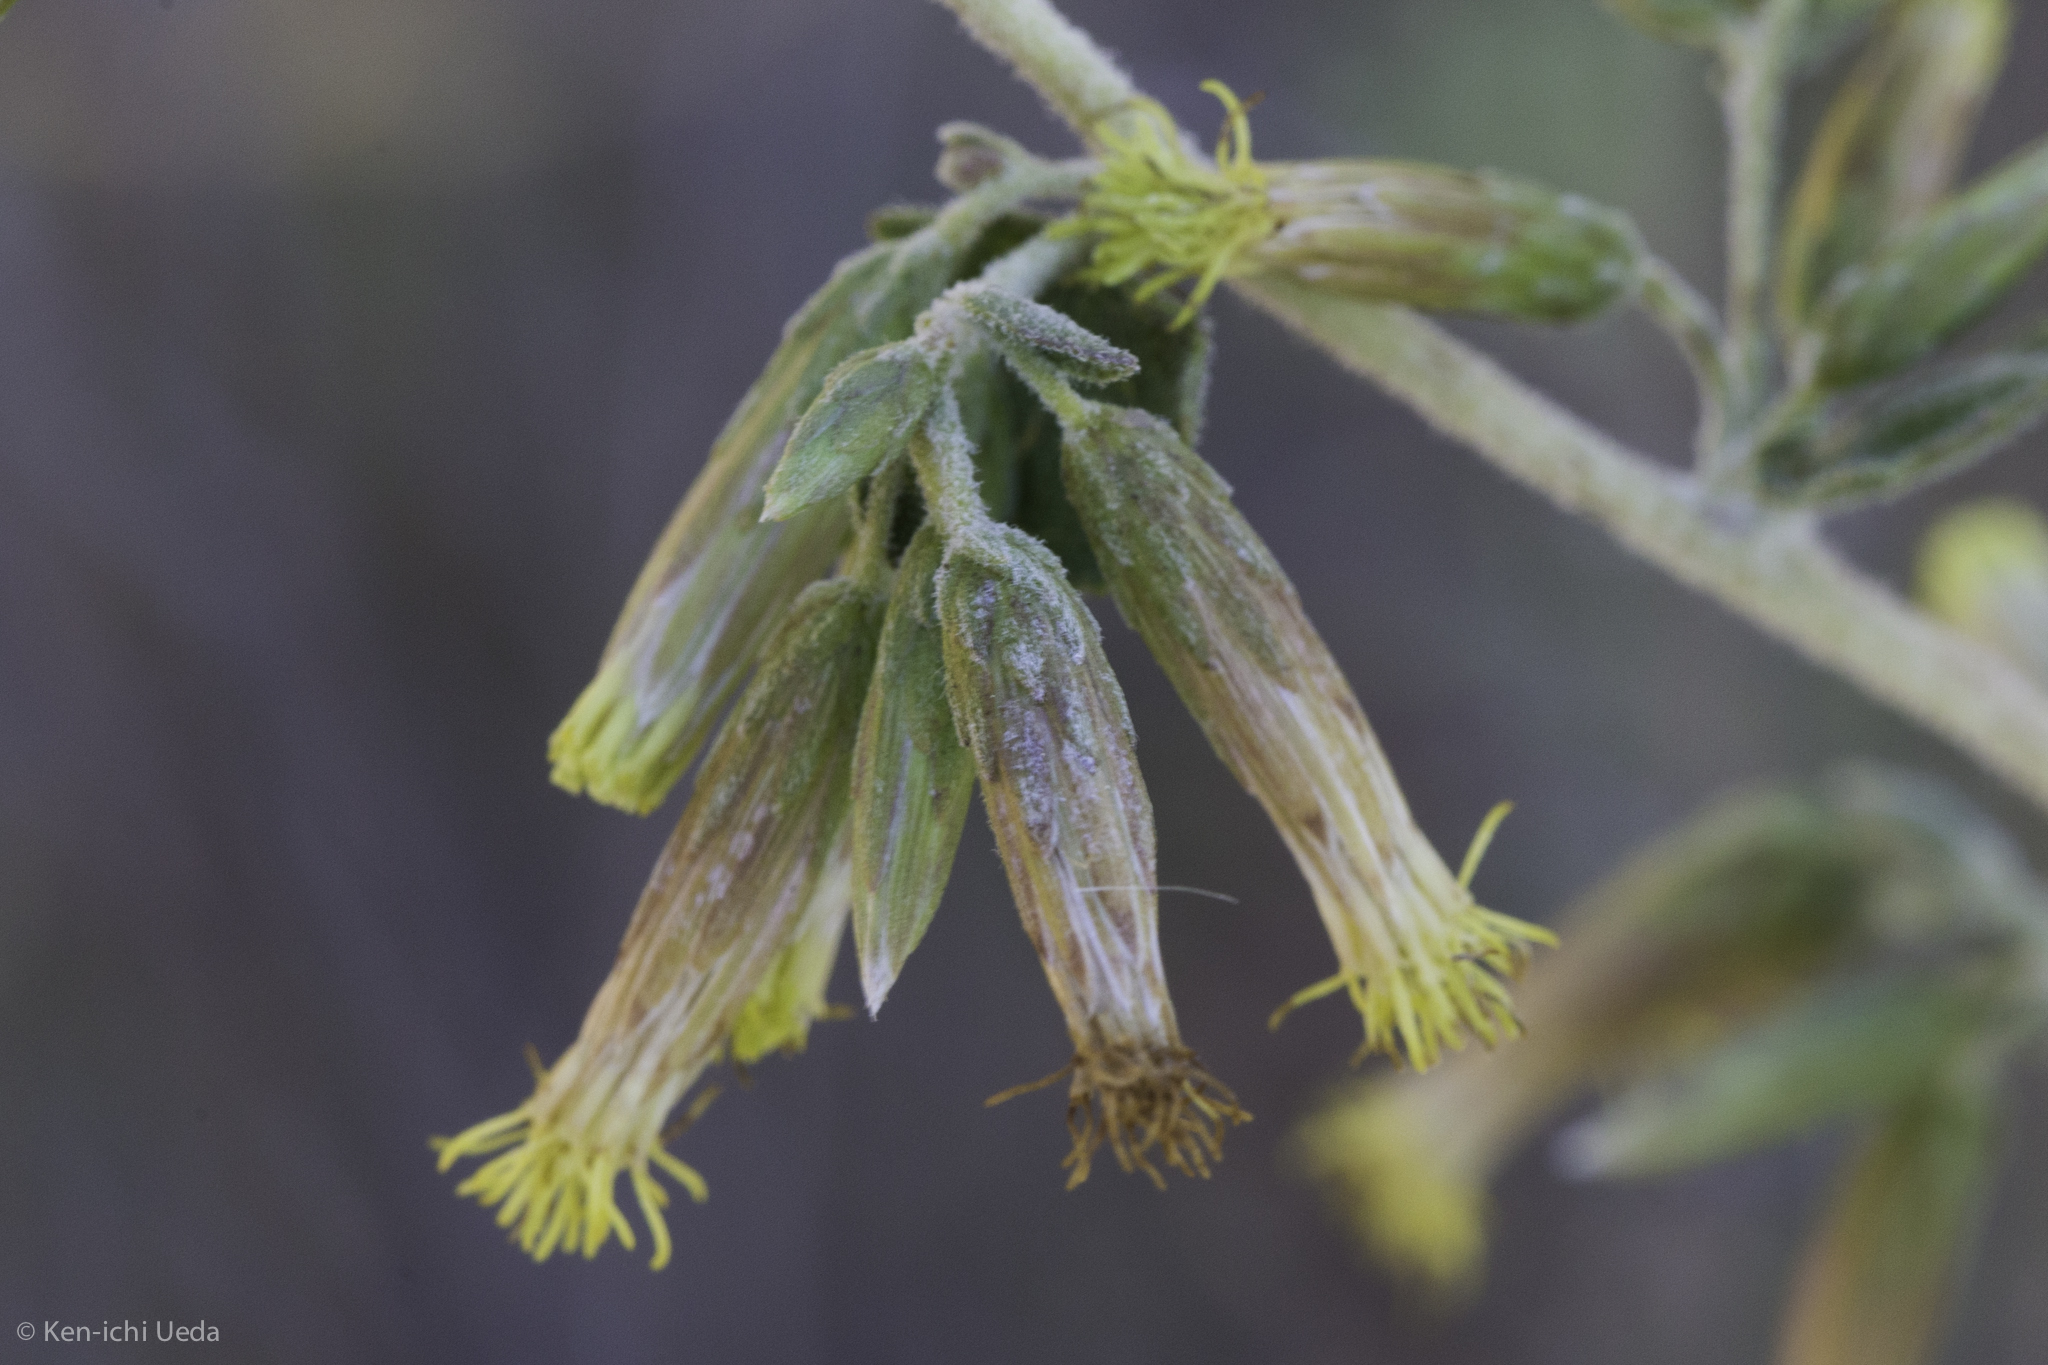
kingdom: Plantae
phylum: Tracheophyta
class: Magnoliopsida
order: Asterales
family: Asteraceae
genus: Brickellia
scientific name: Brickellia californica
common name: California brickellbush
